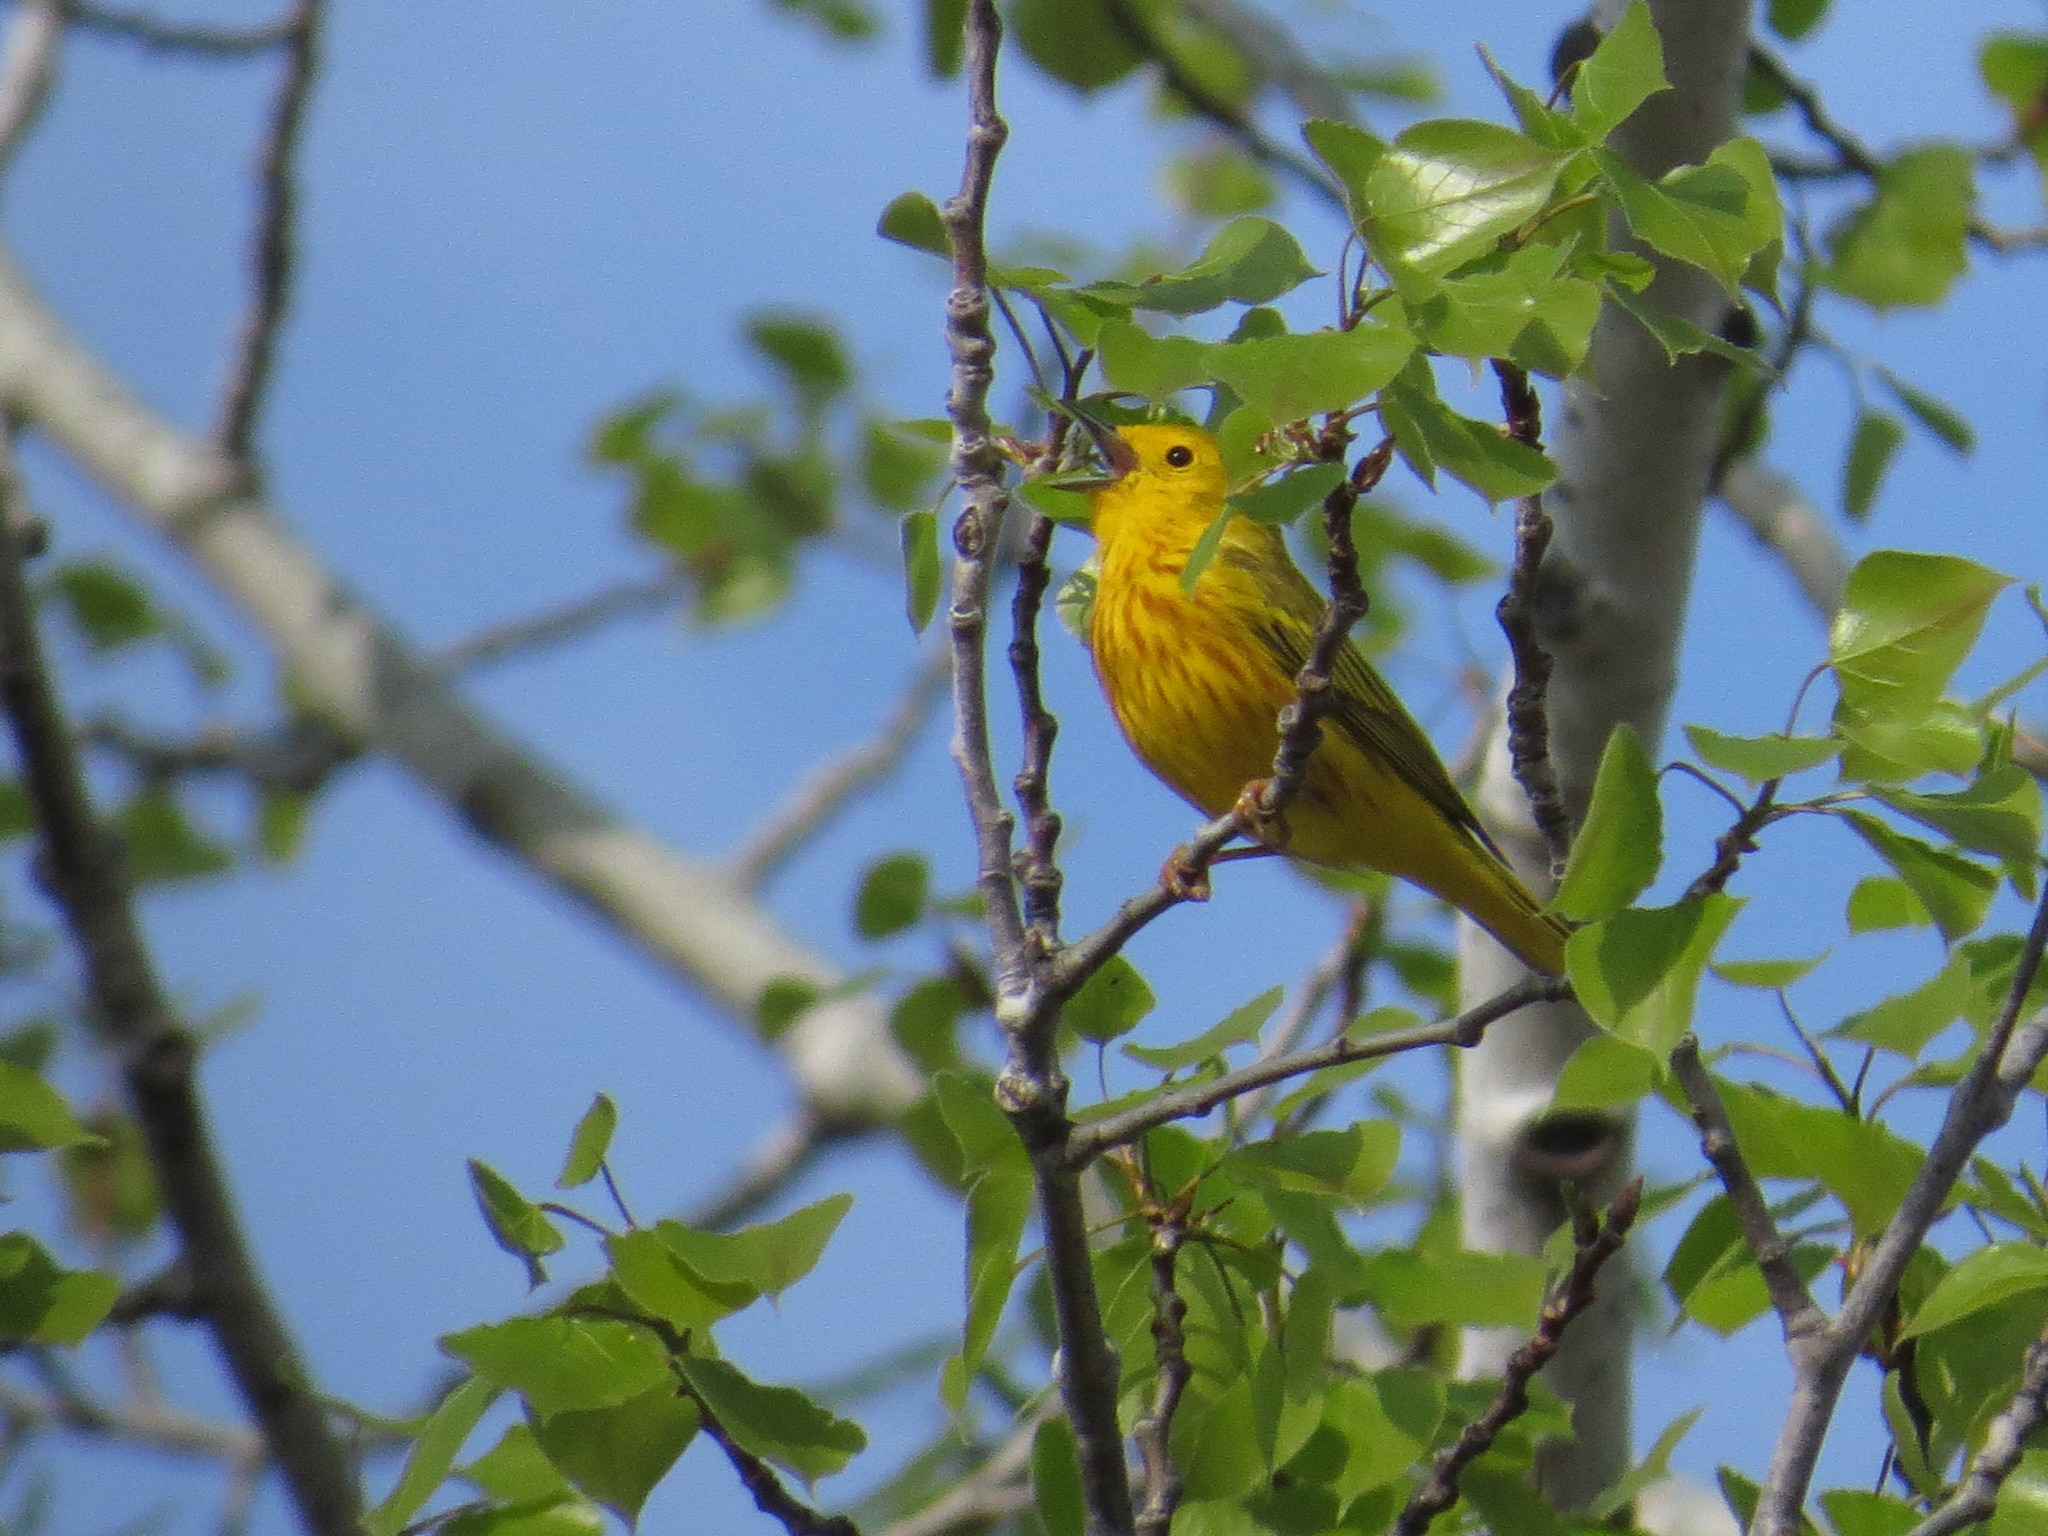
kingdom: Animalia
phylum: Chordata
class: Aves
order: Passeriformes
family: Parulidae
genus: Setophaga
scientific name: Setophaga petechia
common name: Yellow warbler
